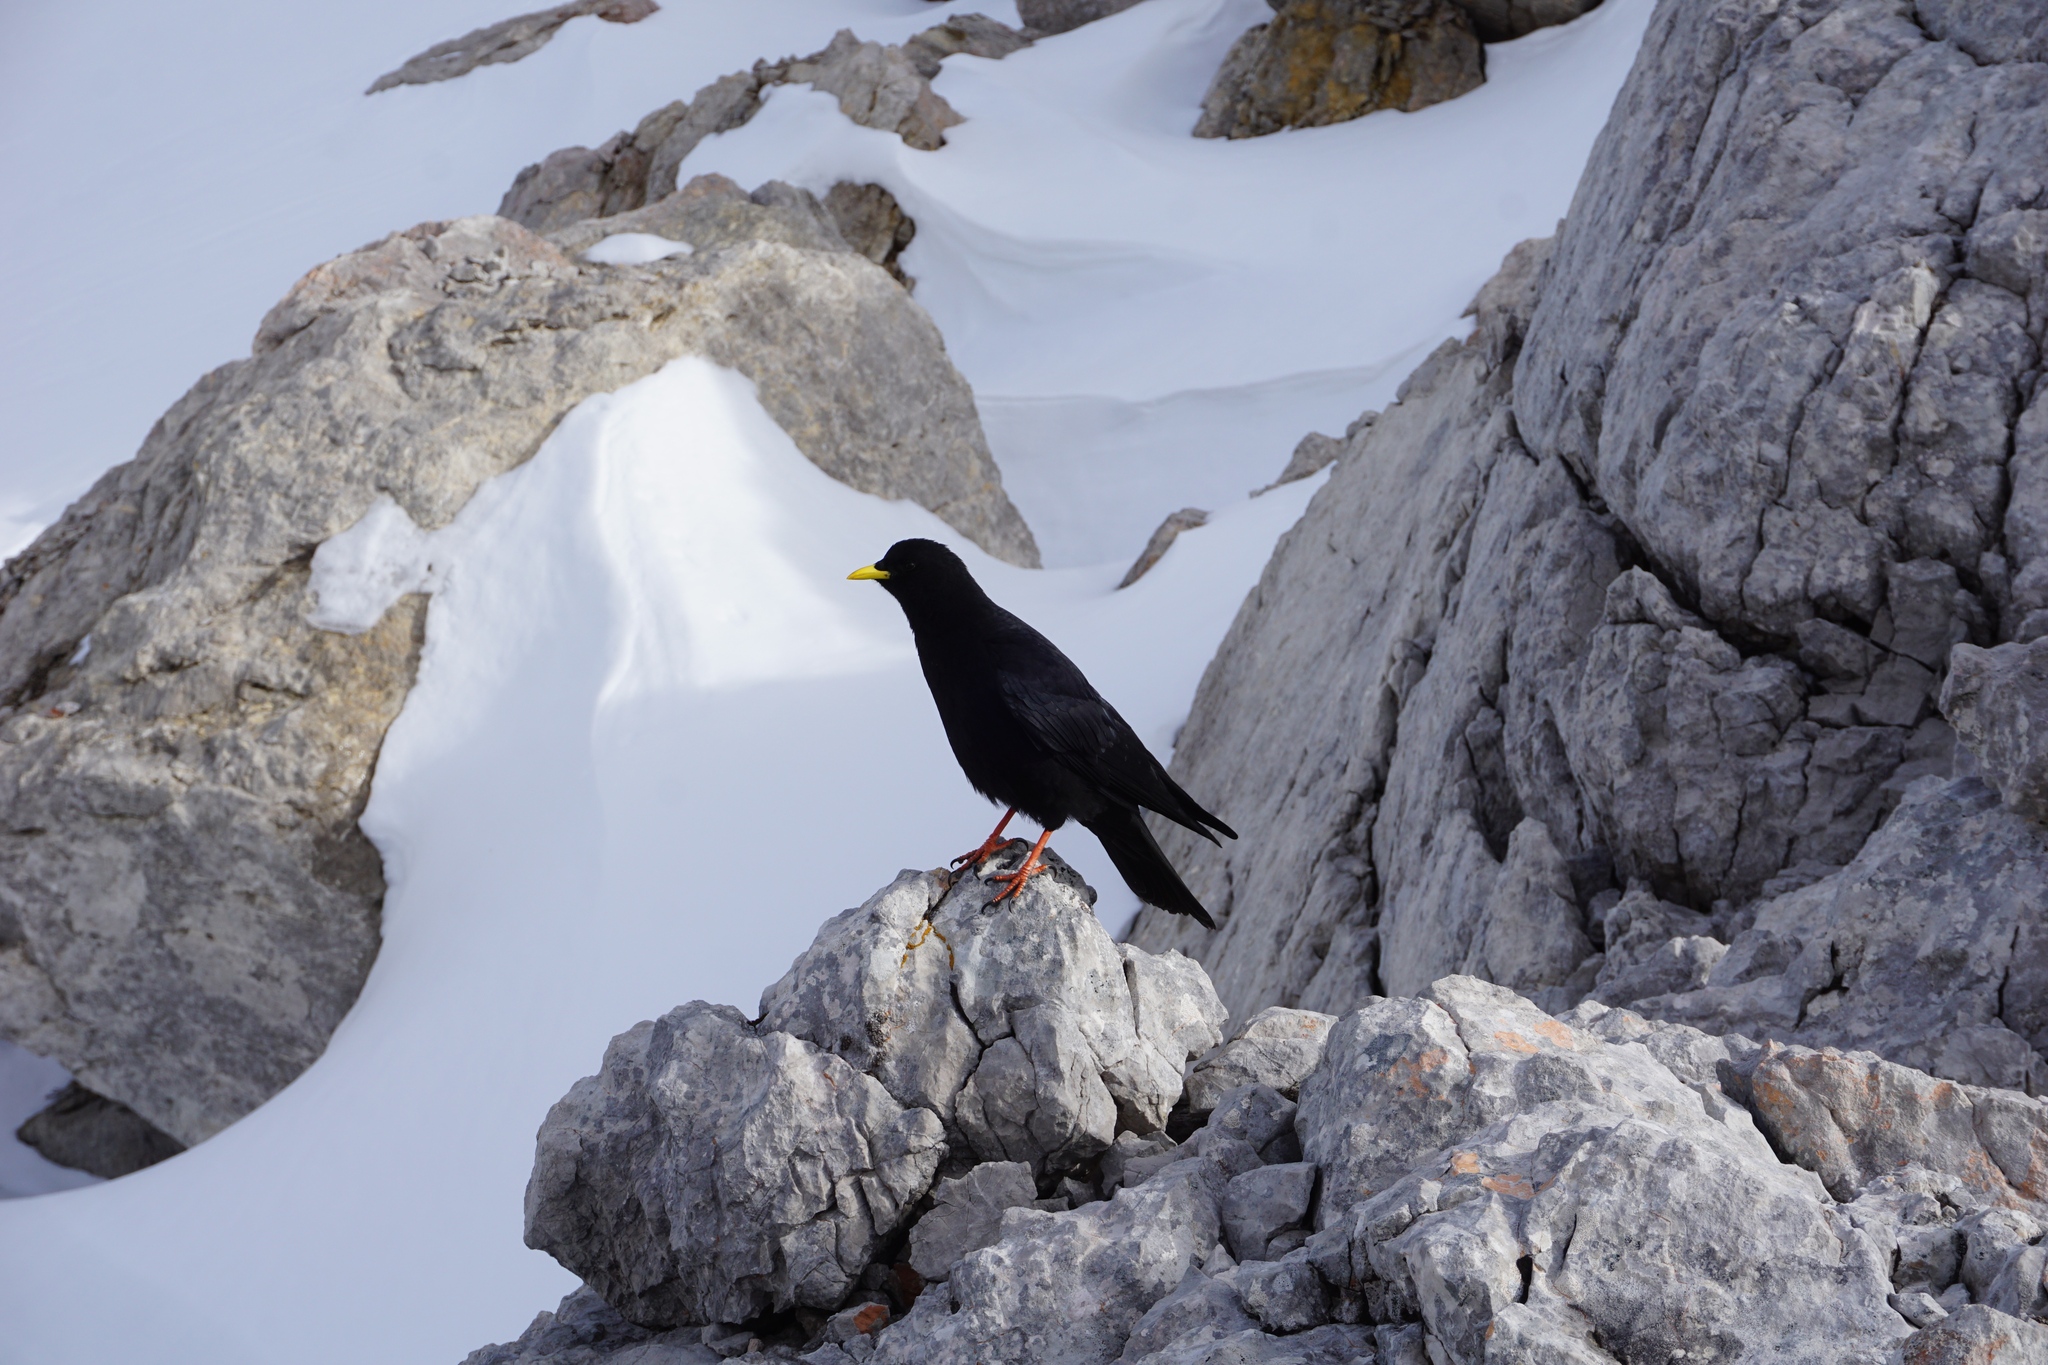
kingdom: Animalia
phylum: Chordata
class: Aves
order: Passeriformes
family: Corvidae
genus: Pyrrhocorax
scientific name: Pyrrhocorax graculus
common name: Alpine chough
